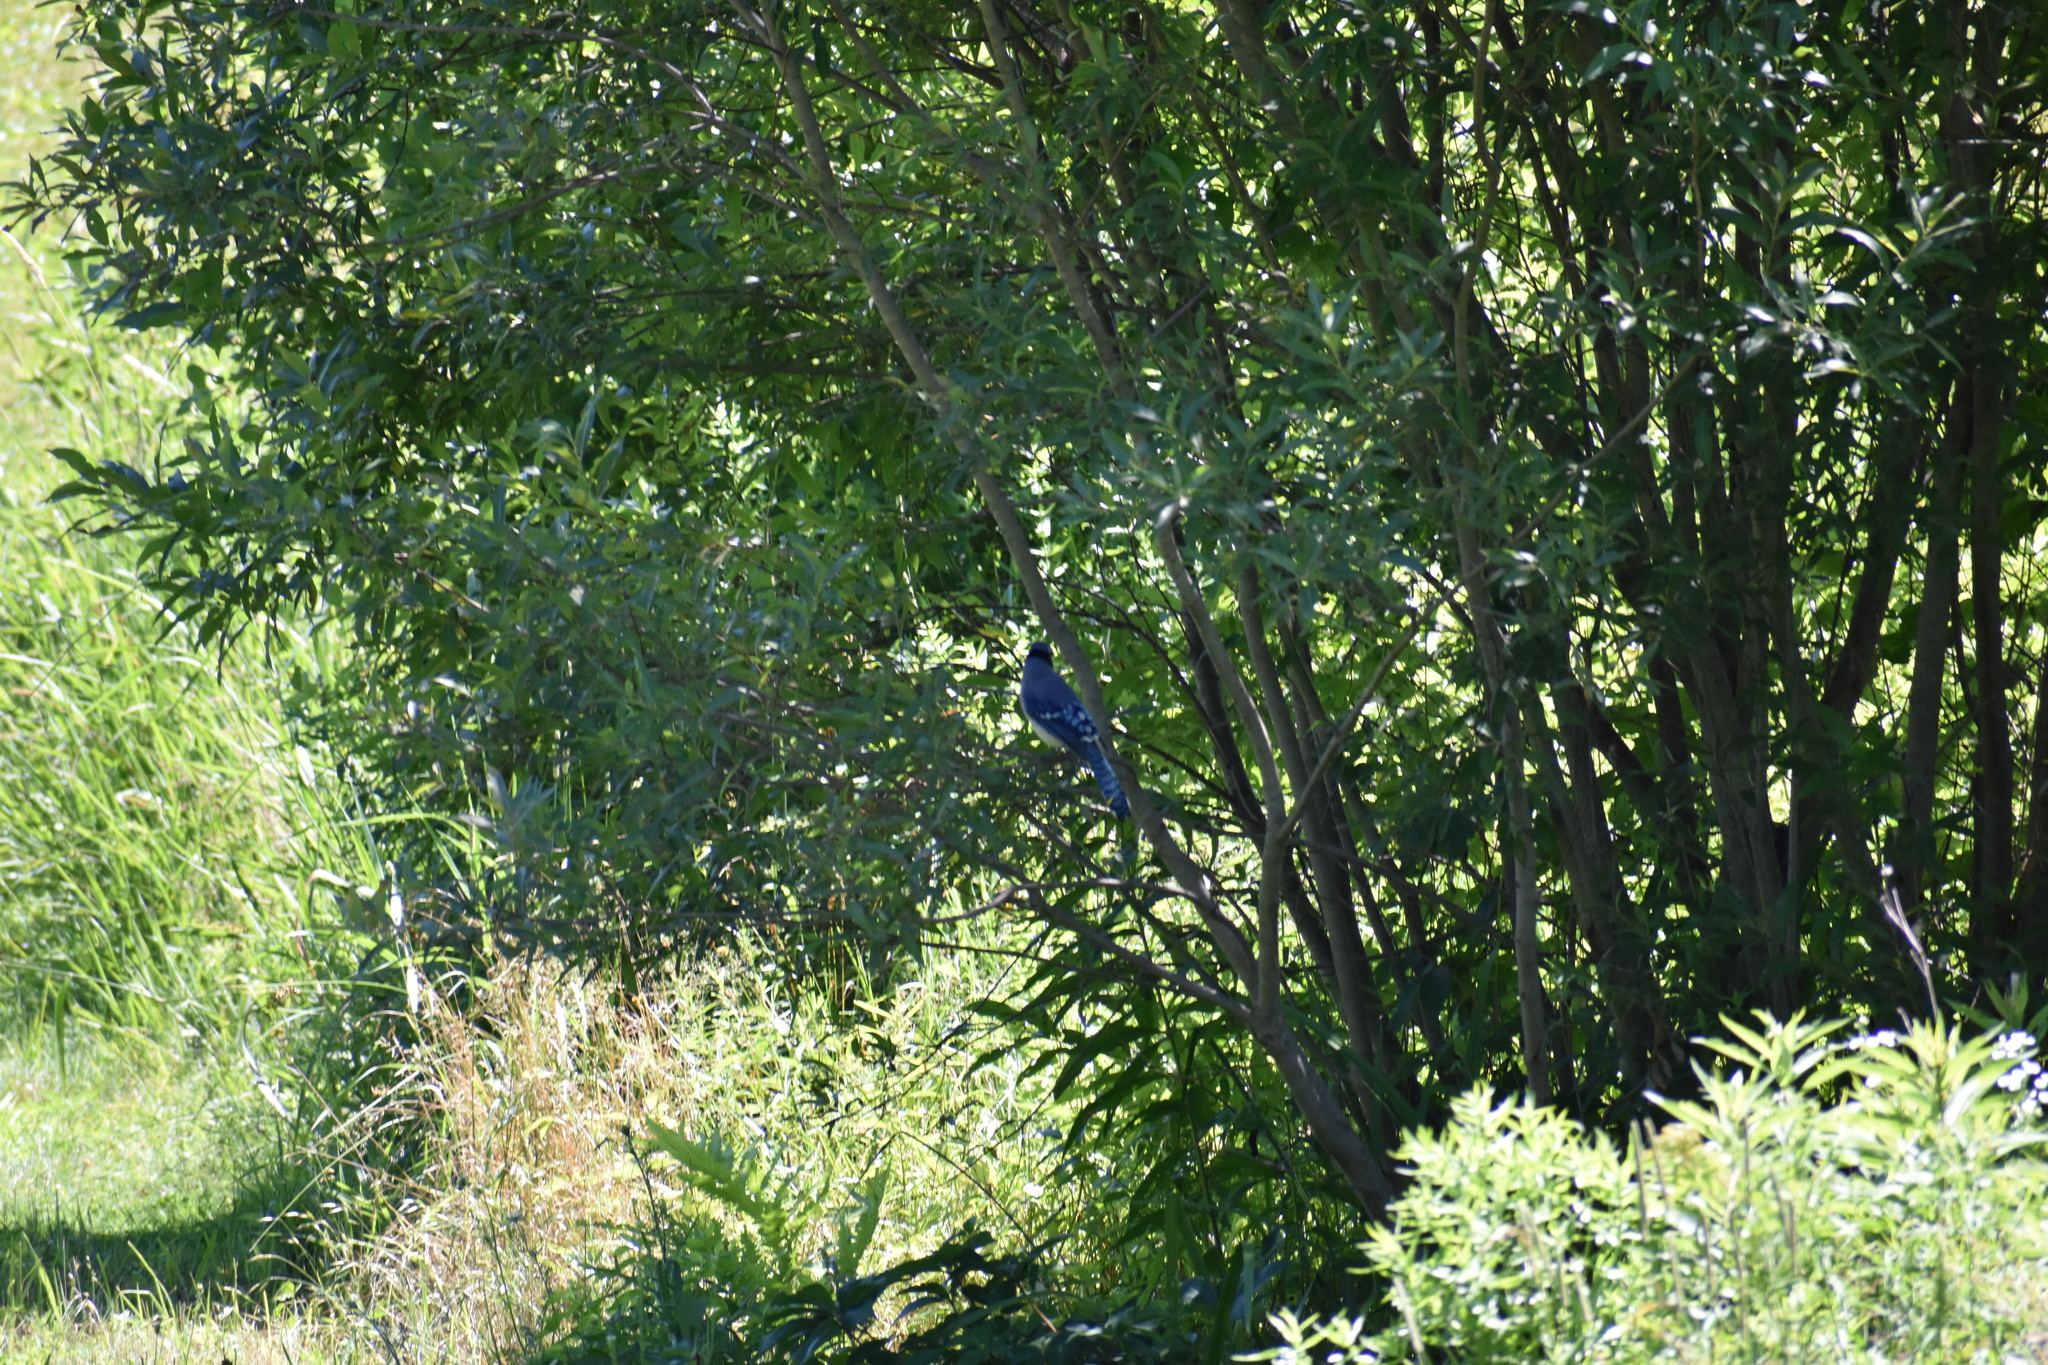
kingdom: Animalia
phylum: Chordata
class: Aves
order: Passeriformes
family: Corvidae
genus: Cyanocitta
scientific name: Cyanocitta cristata
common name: Blue jay
